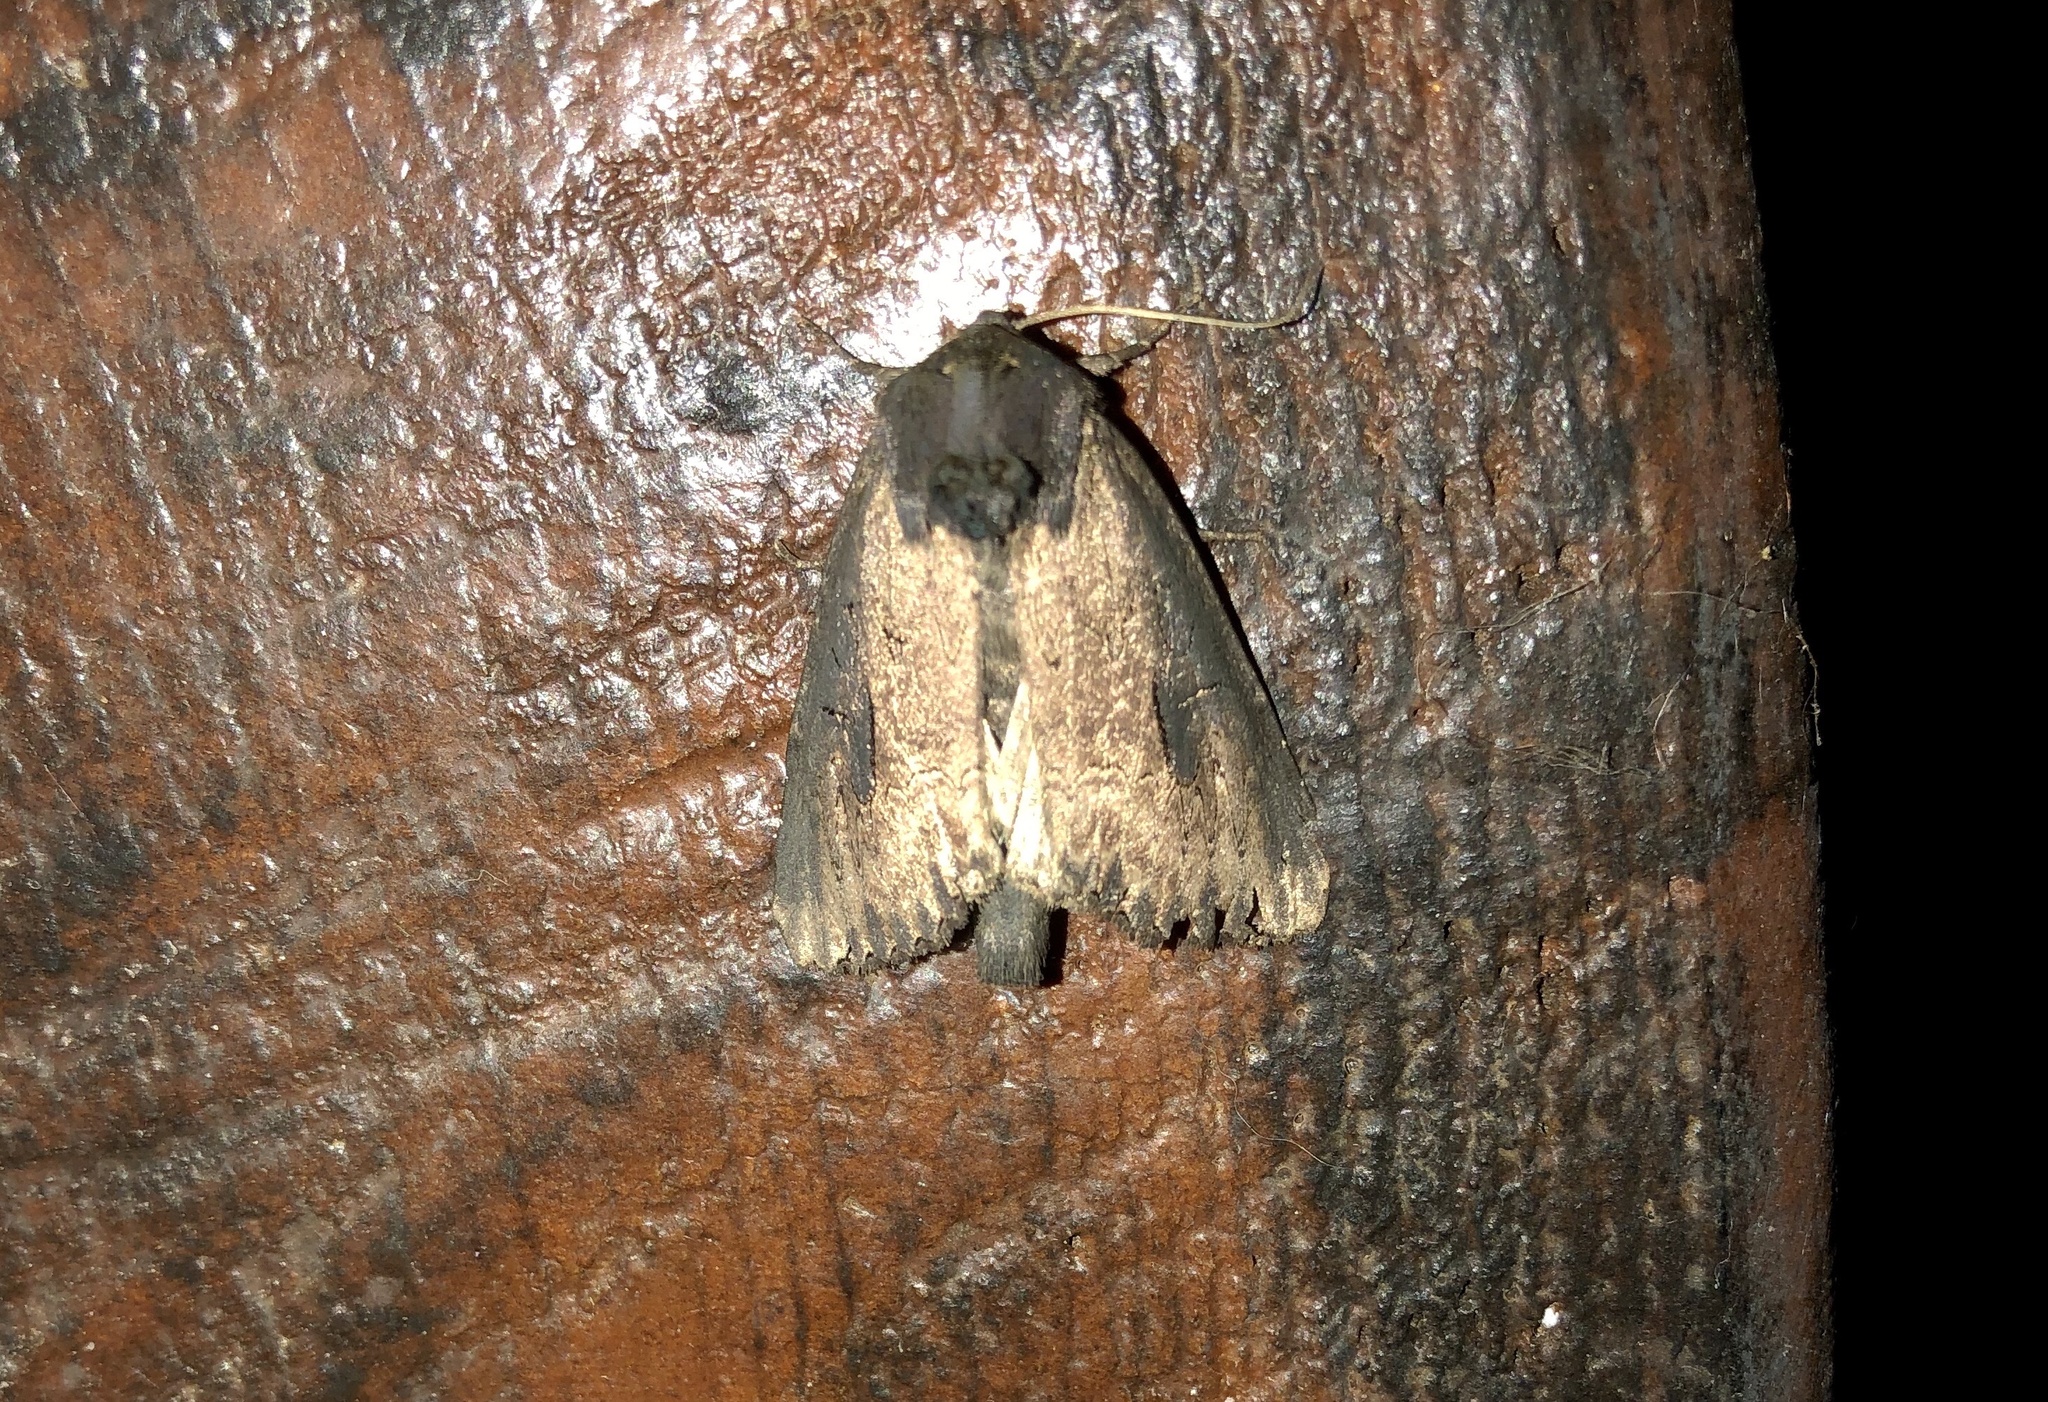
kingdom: Animalia
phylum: Arthropoda
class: Insecta
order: Lepidoptera
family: Noctuidae
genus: Macronoctua
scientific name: Macronoctua onusta
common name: Iris borer
